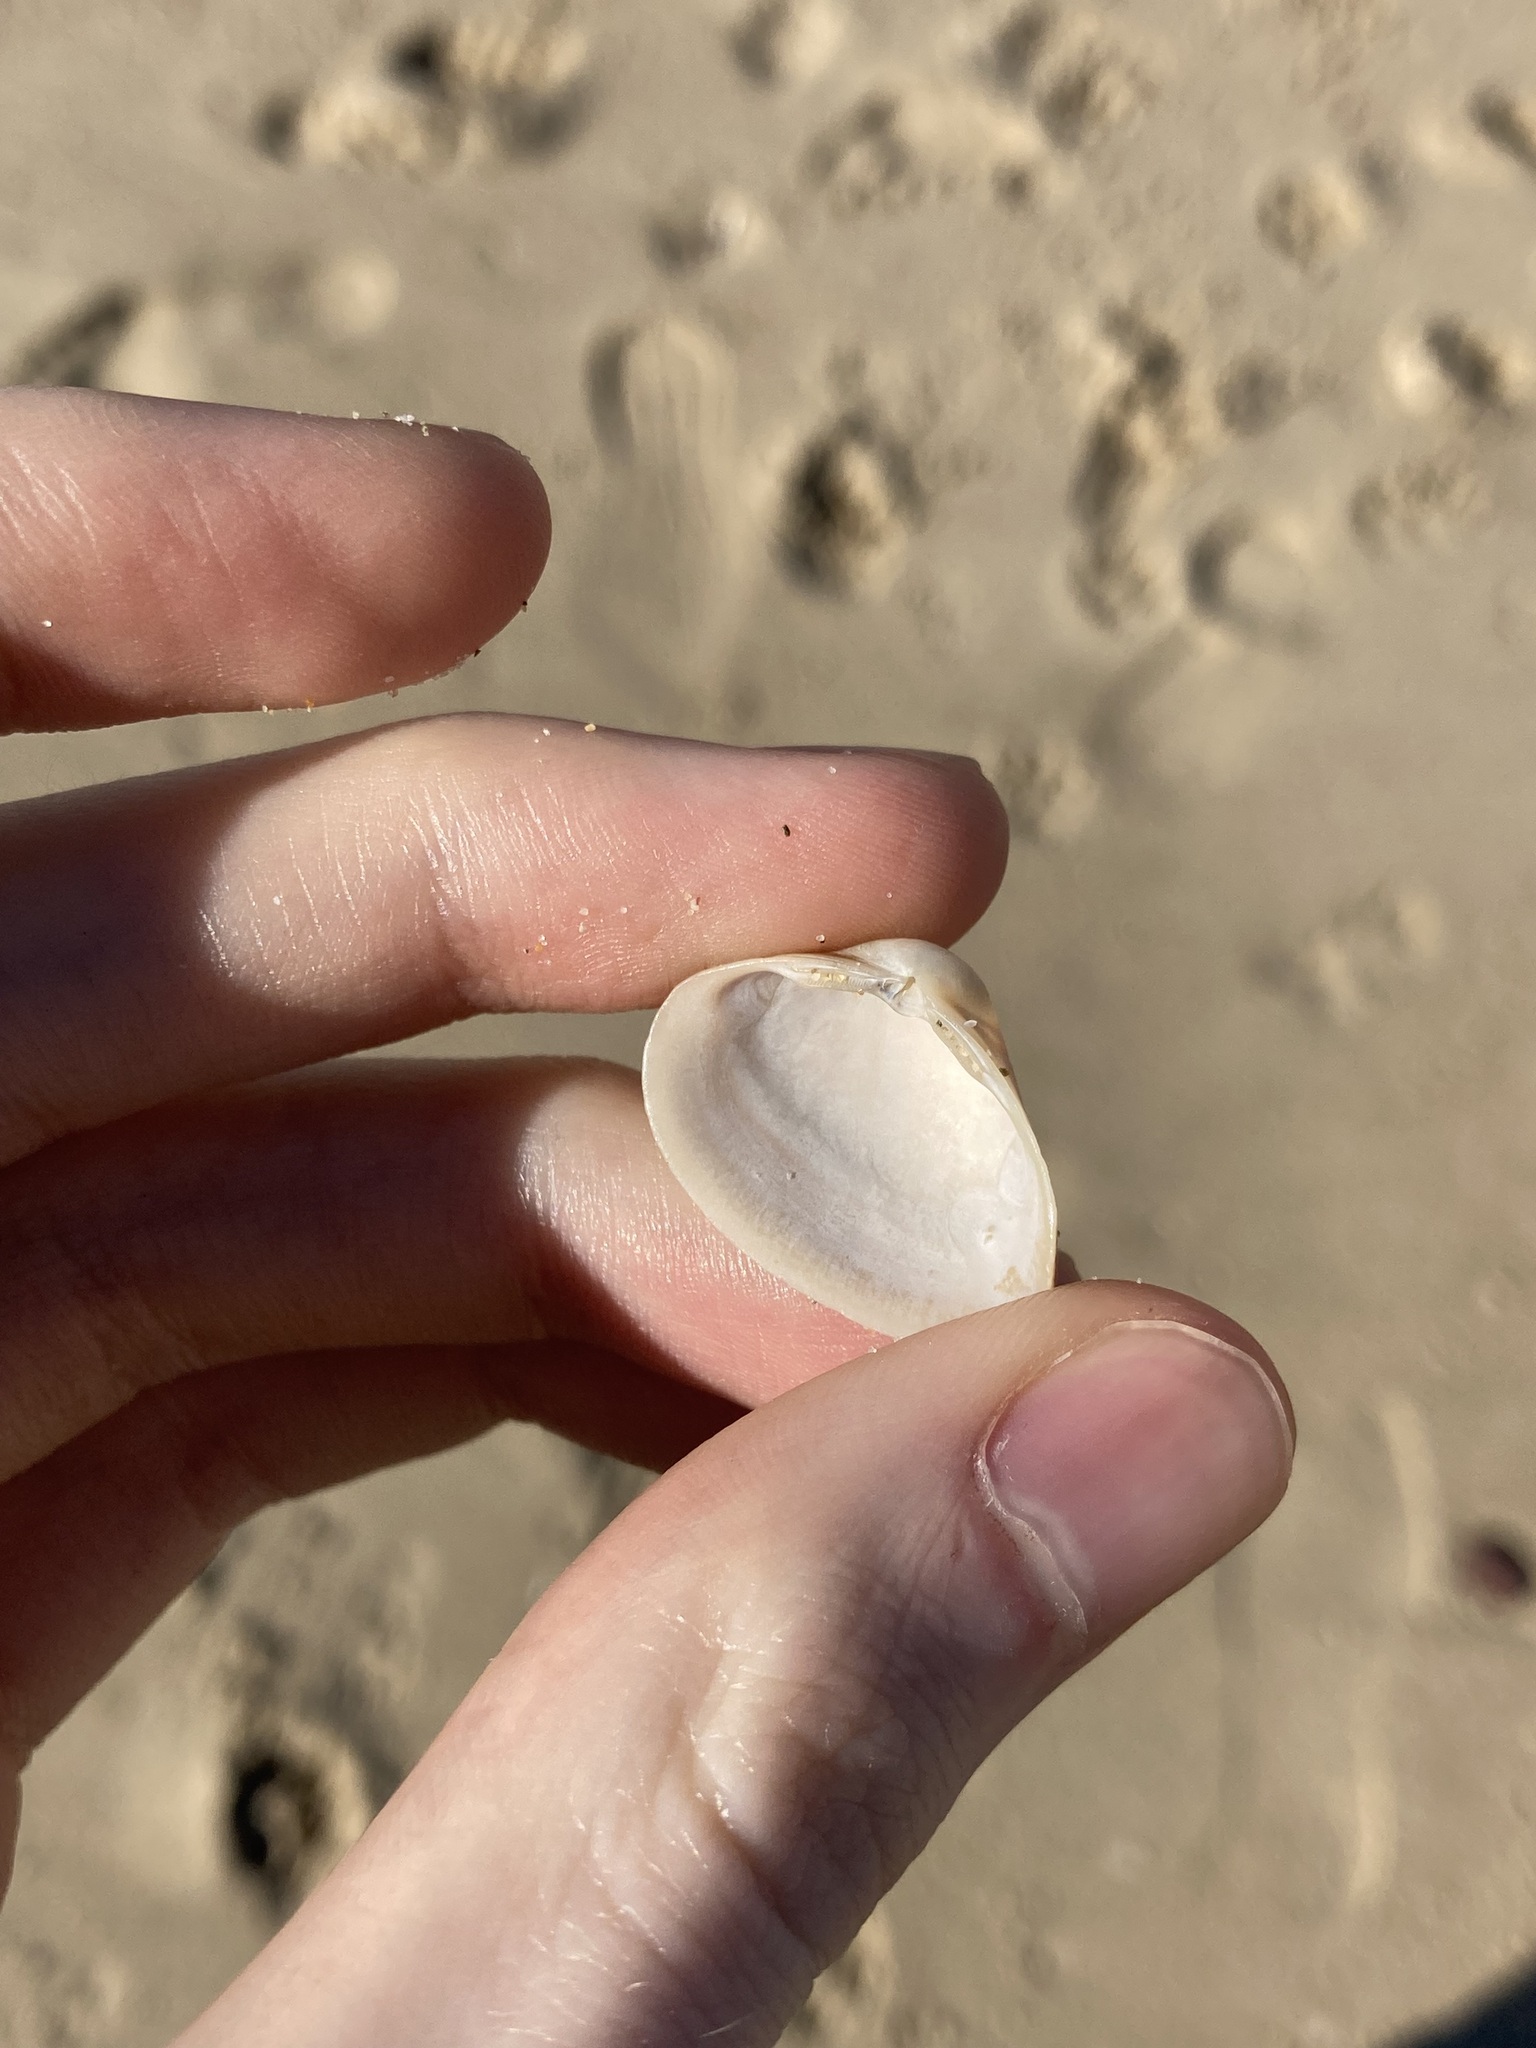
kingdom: Animalia
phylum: Mollusca
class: Bivalvia
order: Venerida
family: Mactridae
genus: Spisula
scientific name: Spisula trigonella
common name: Trigonal mactra
